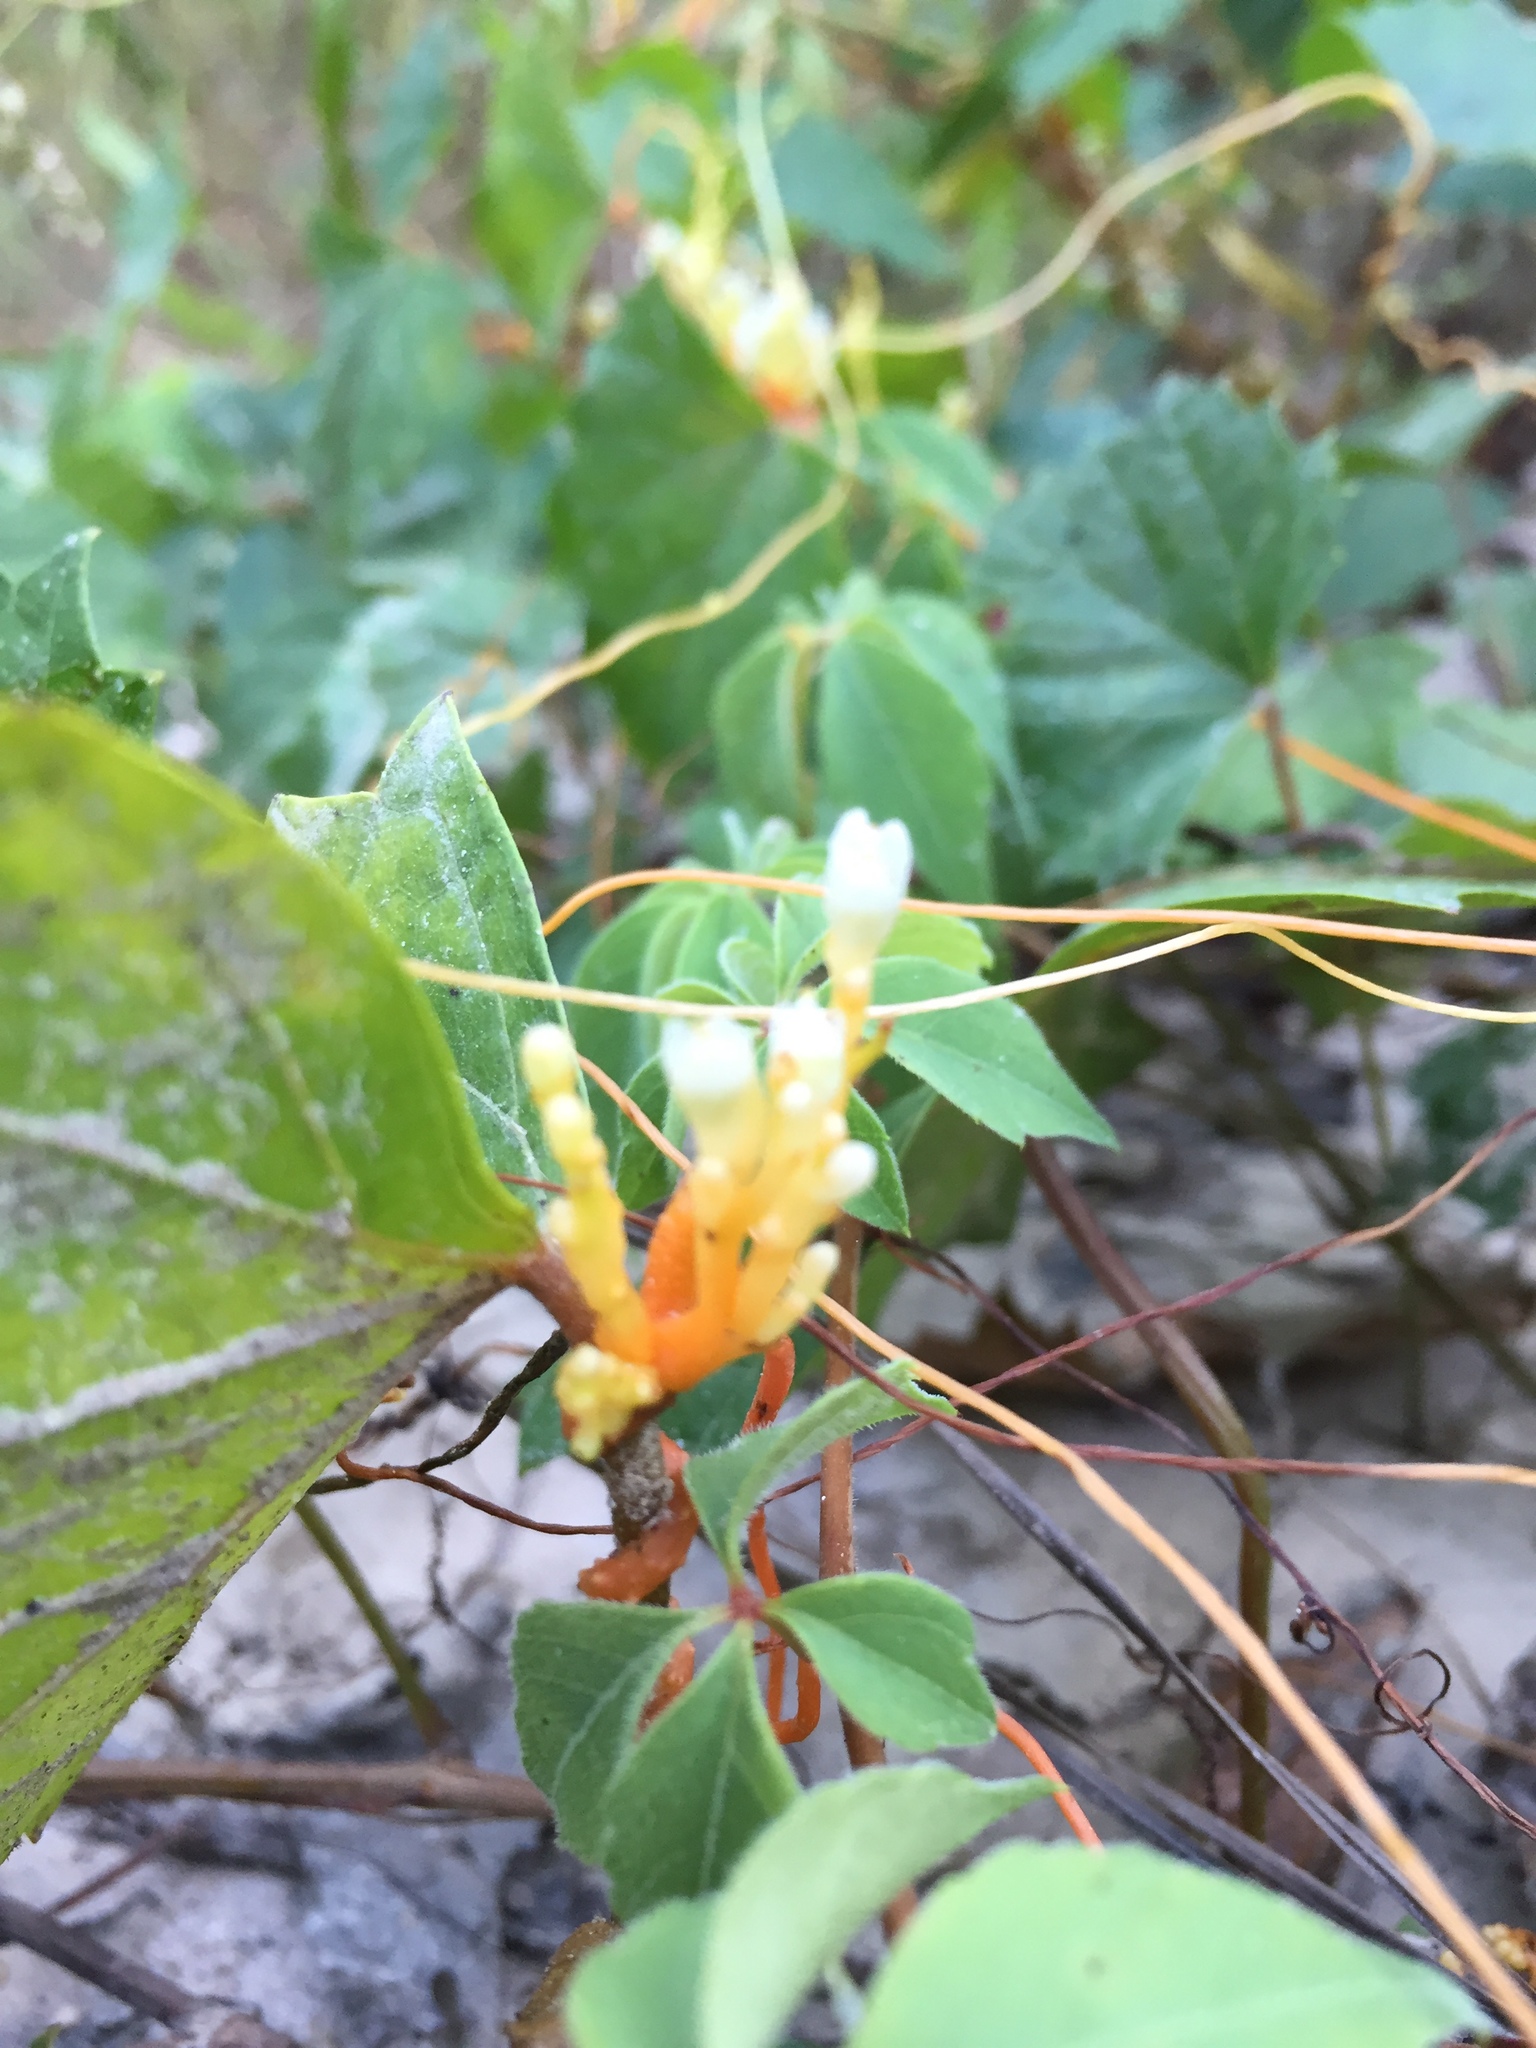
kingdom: Plantae
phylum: Tracheophyta
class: Magnoliopsida
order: Solanales
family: Convolvulaceae
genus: Cuscuta
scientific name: Cuscuta gronovii
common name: Common dodder
